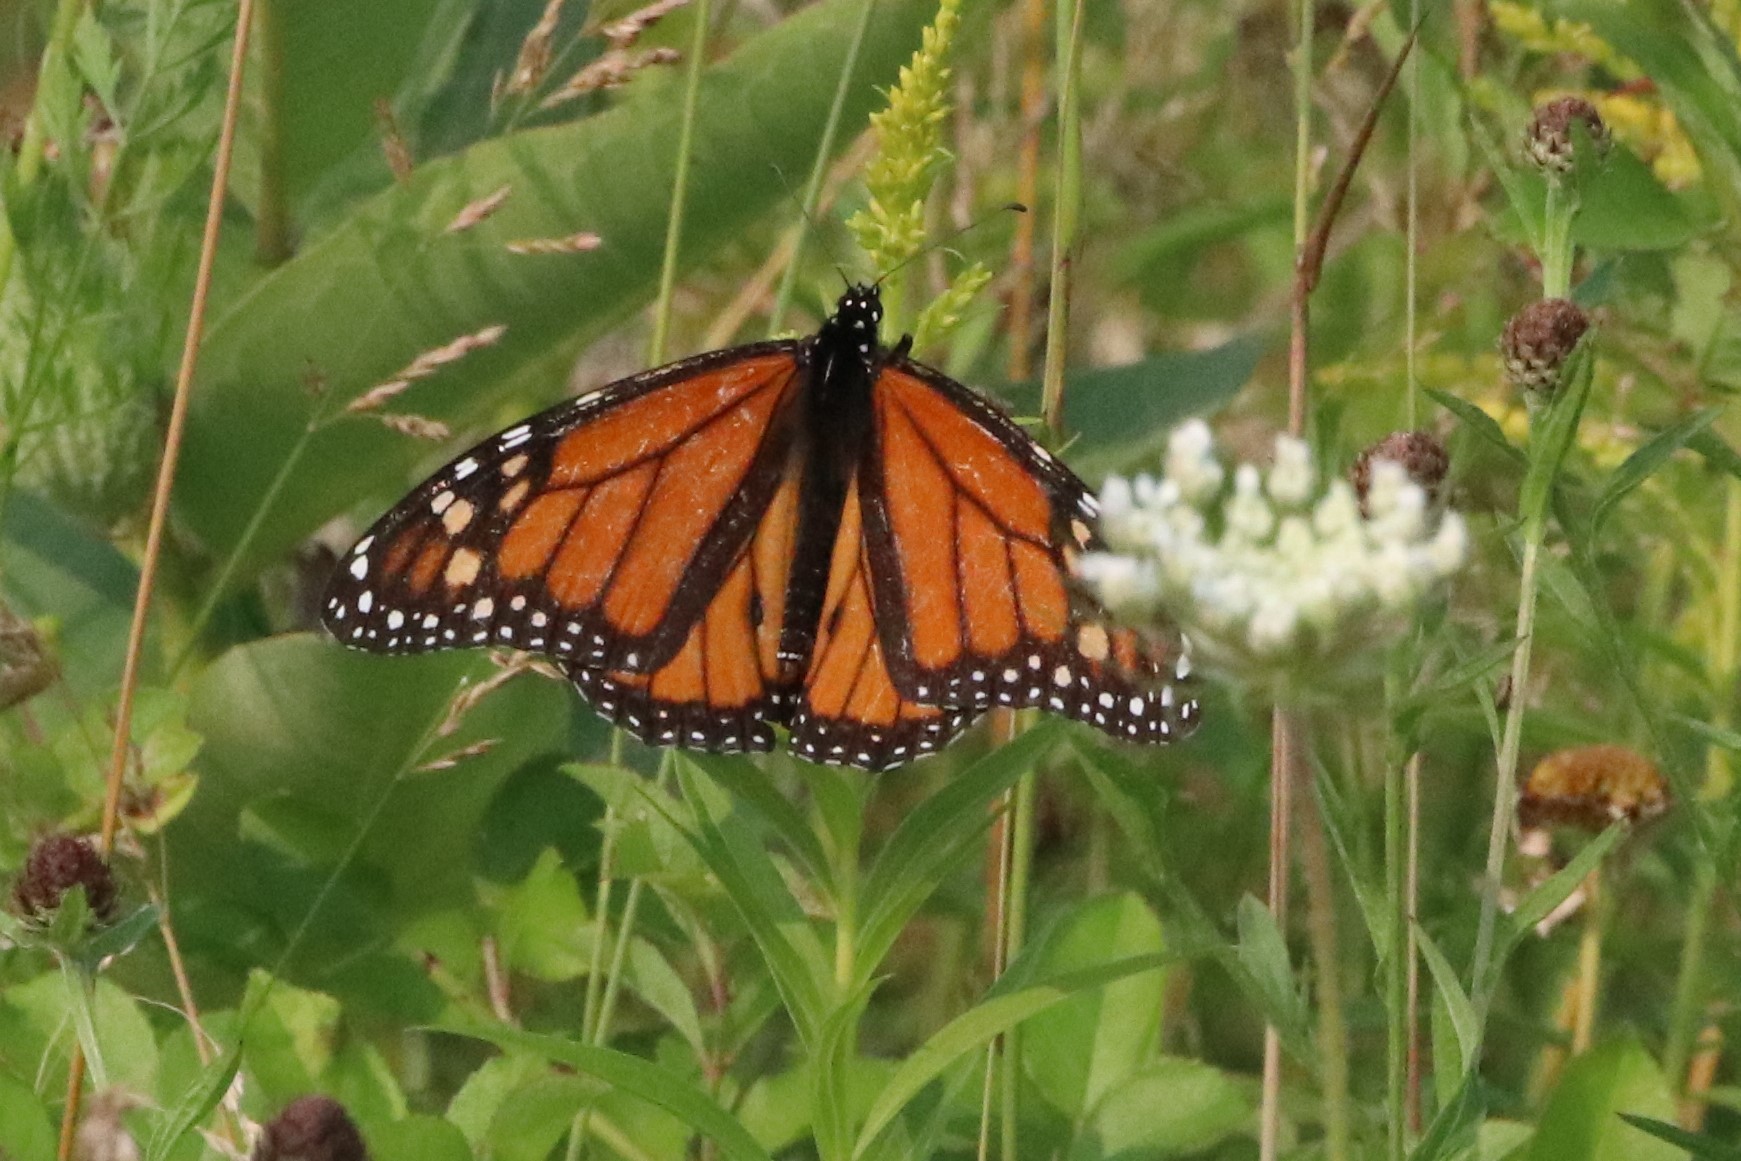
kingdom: Animalia
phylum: Arthropoda
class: Insecta
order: Lepidoptera
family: Nymphalidae
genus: Danaus
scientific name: Danaus plexippus
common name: Monarch
